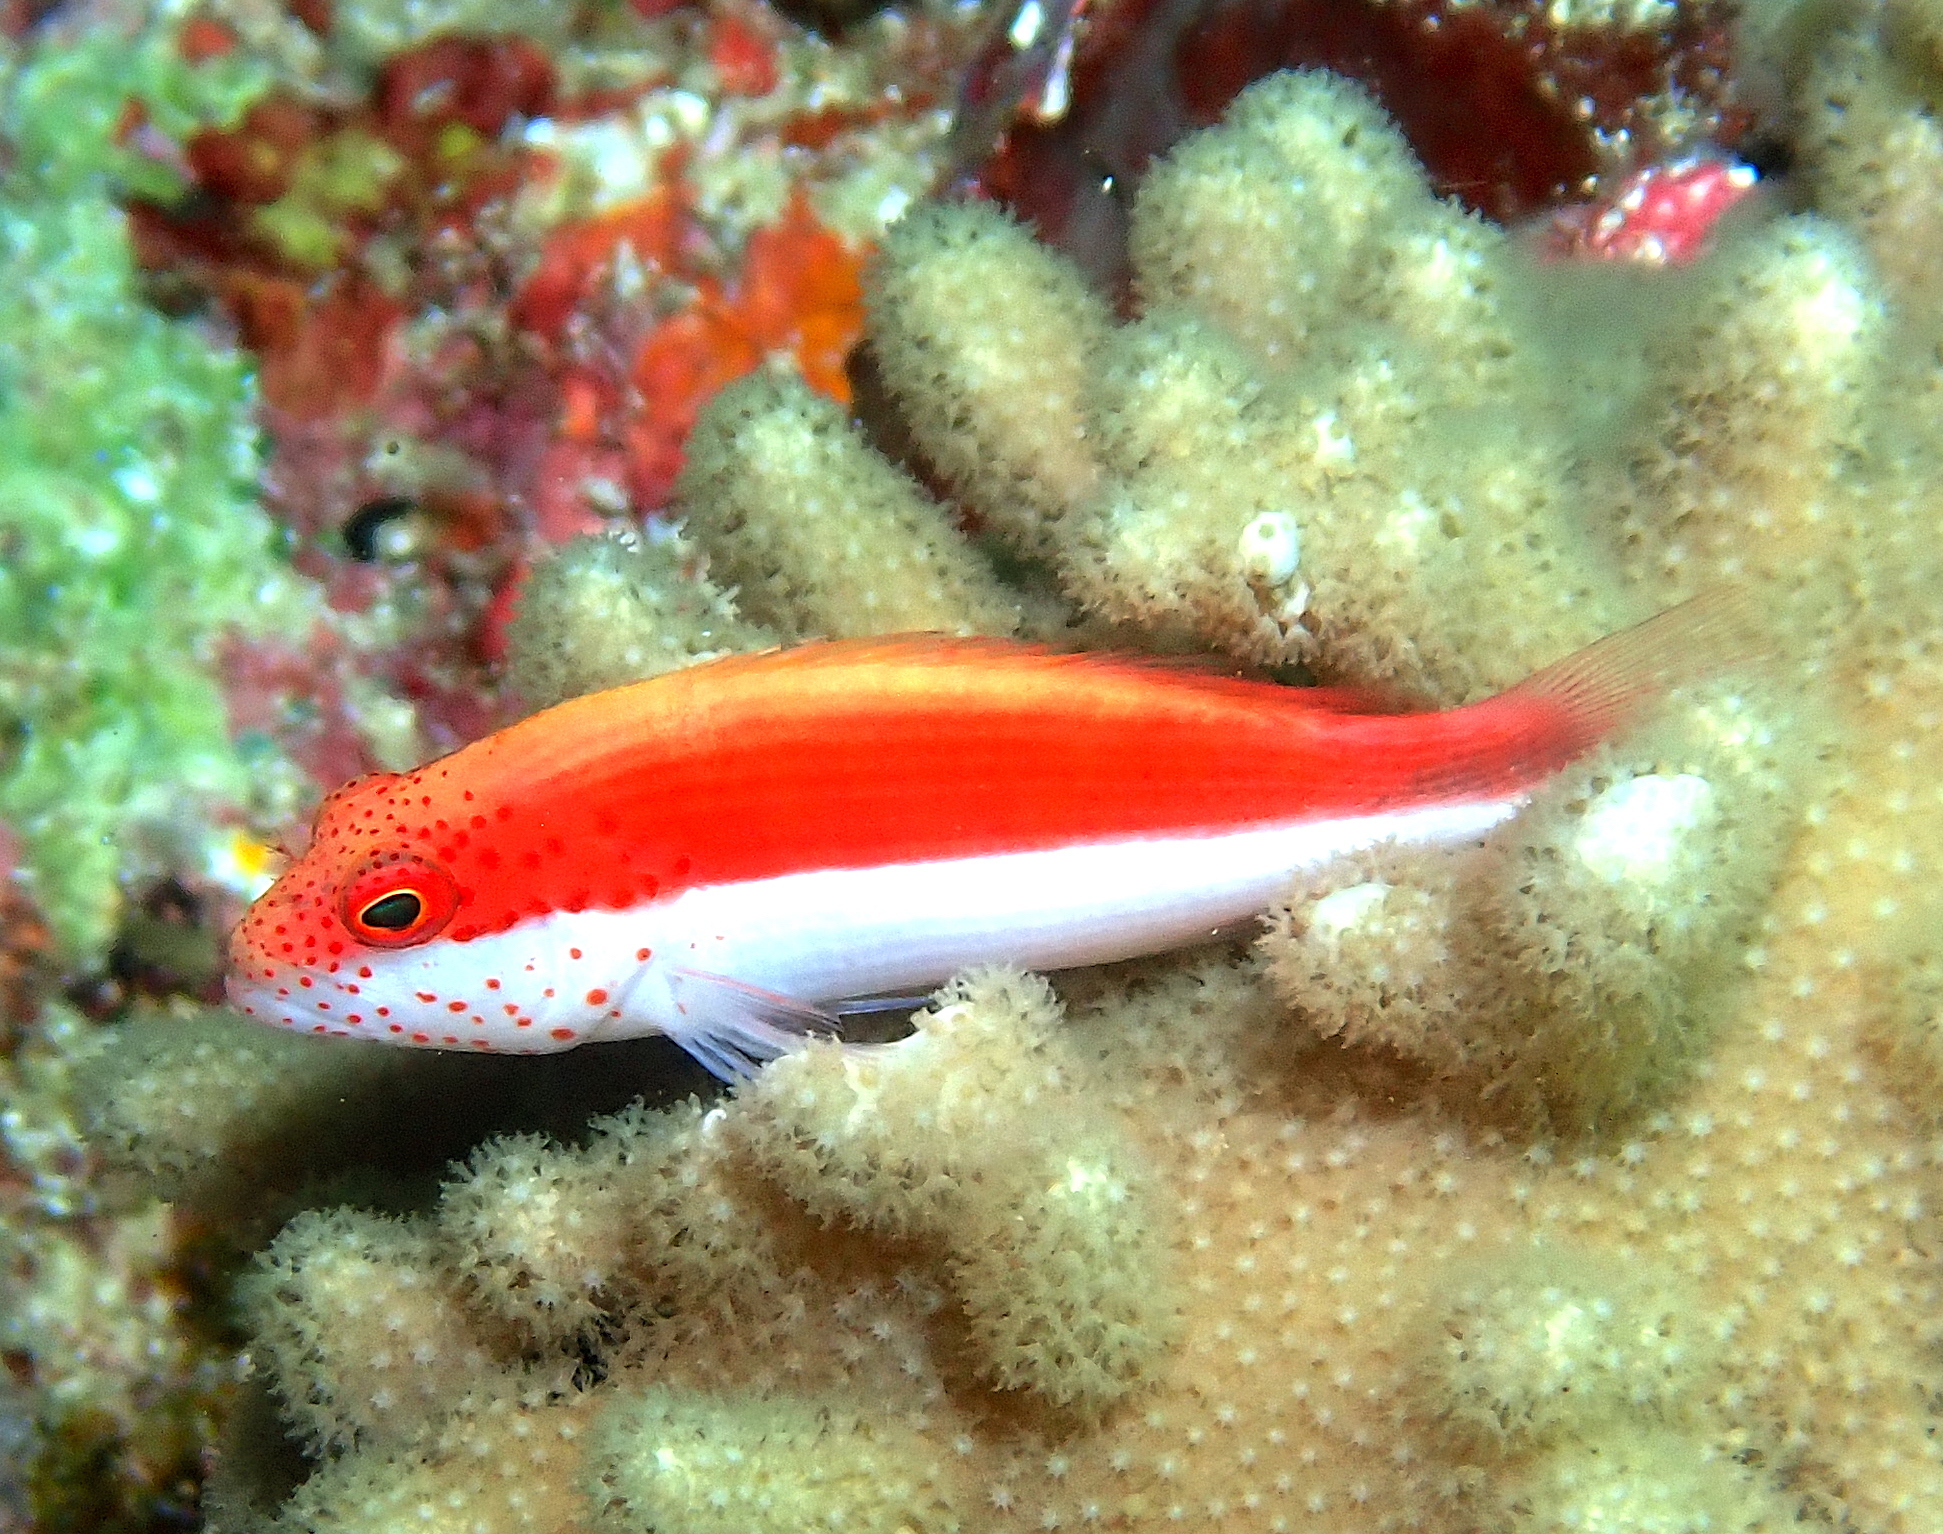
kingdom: Animalia
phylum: Chordata
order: Perciformes
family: Cirrhitidae
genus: Paracirrhites
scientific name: Paracirrhites forsteri
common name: Freckled hawkfish
